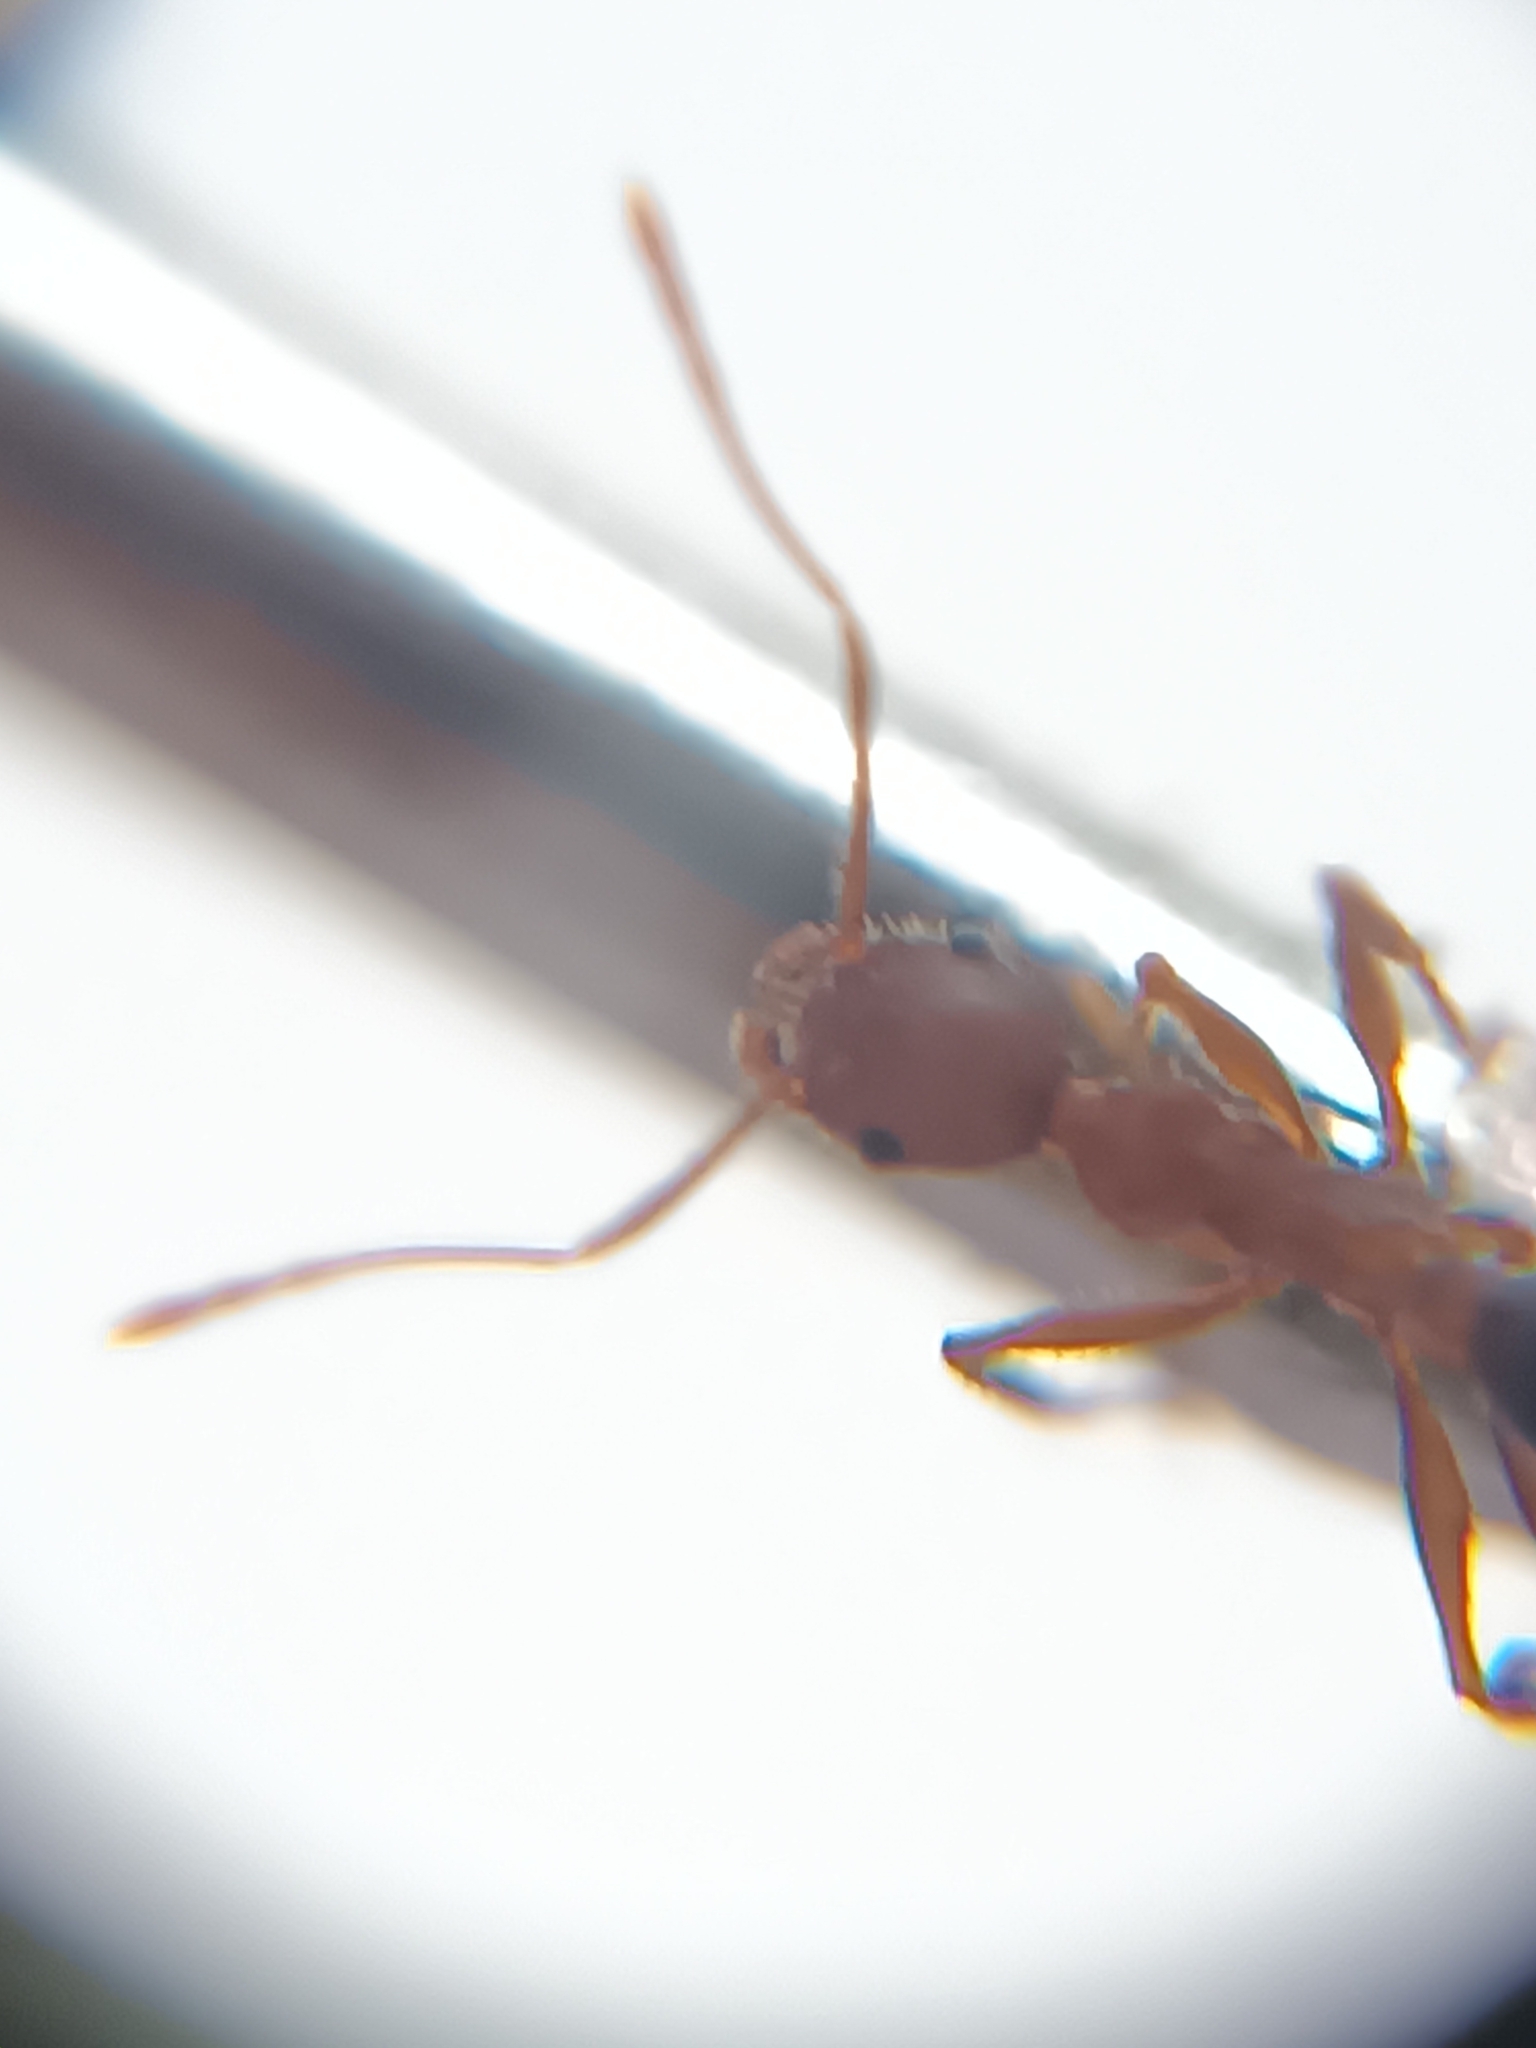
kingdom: Animalia
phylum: Arthropoda
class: Insecta
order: Hymenoptera
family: Formicidae
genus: Pheidole
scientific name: Pheidole spathifera
